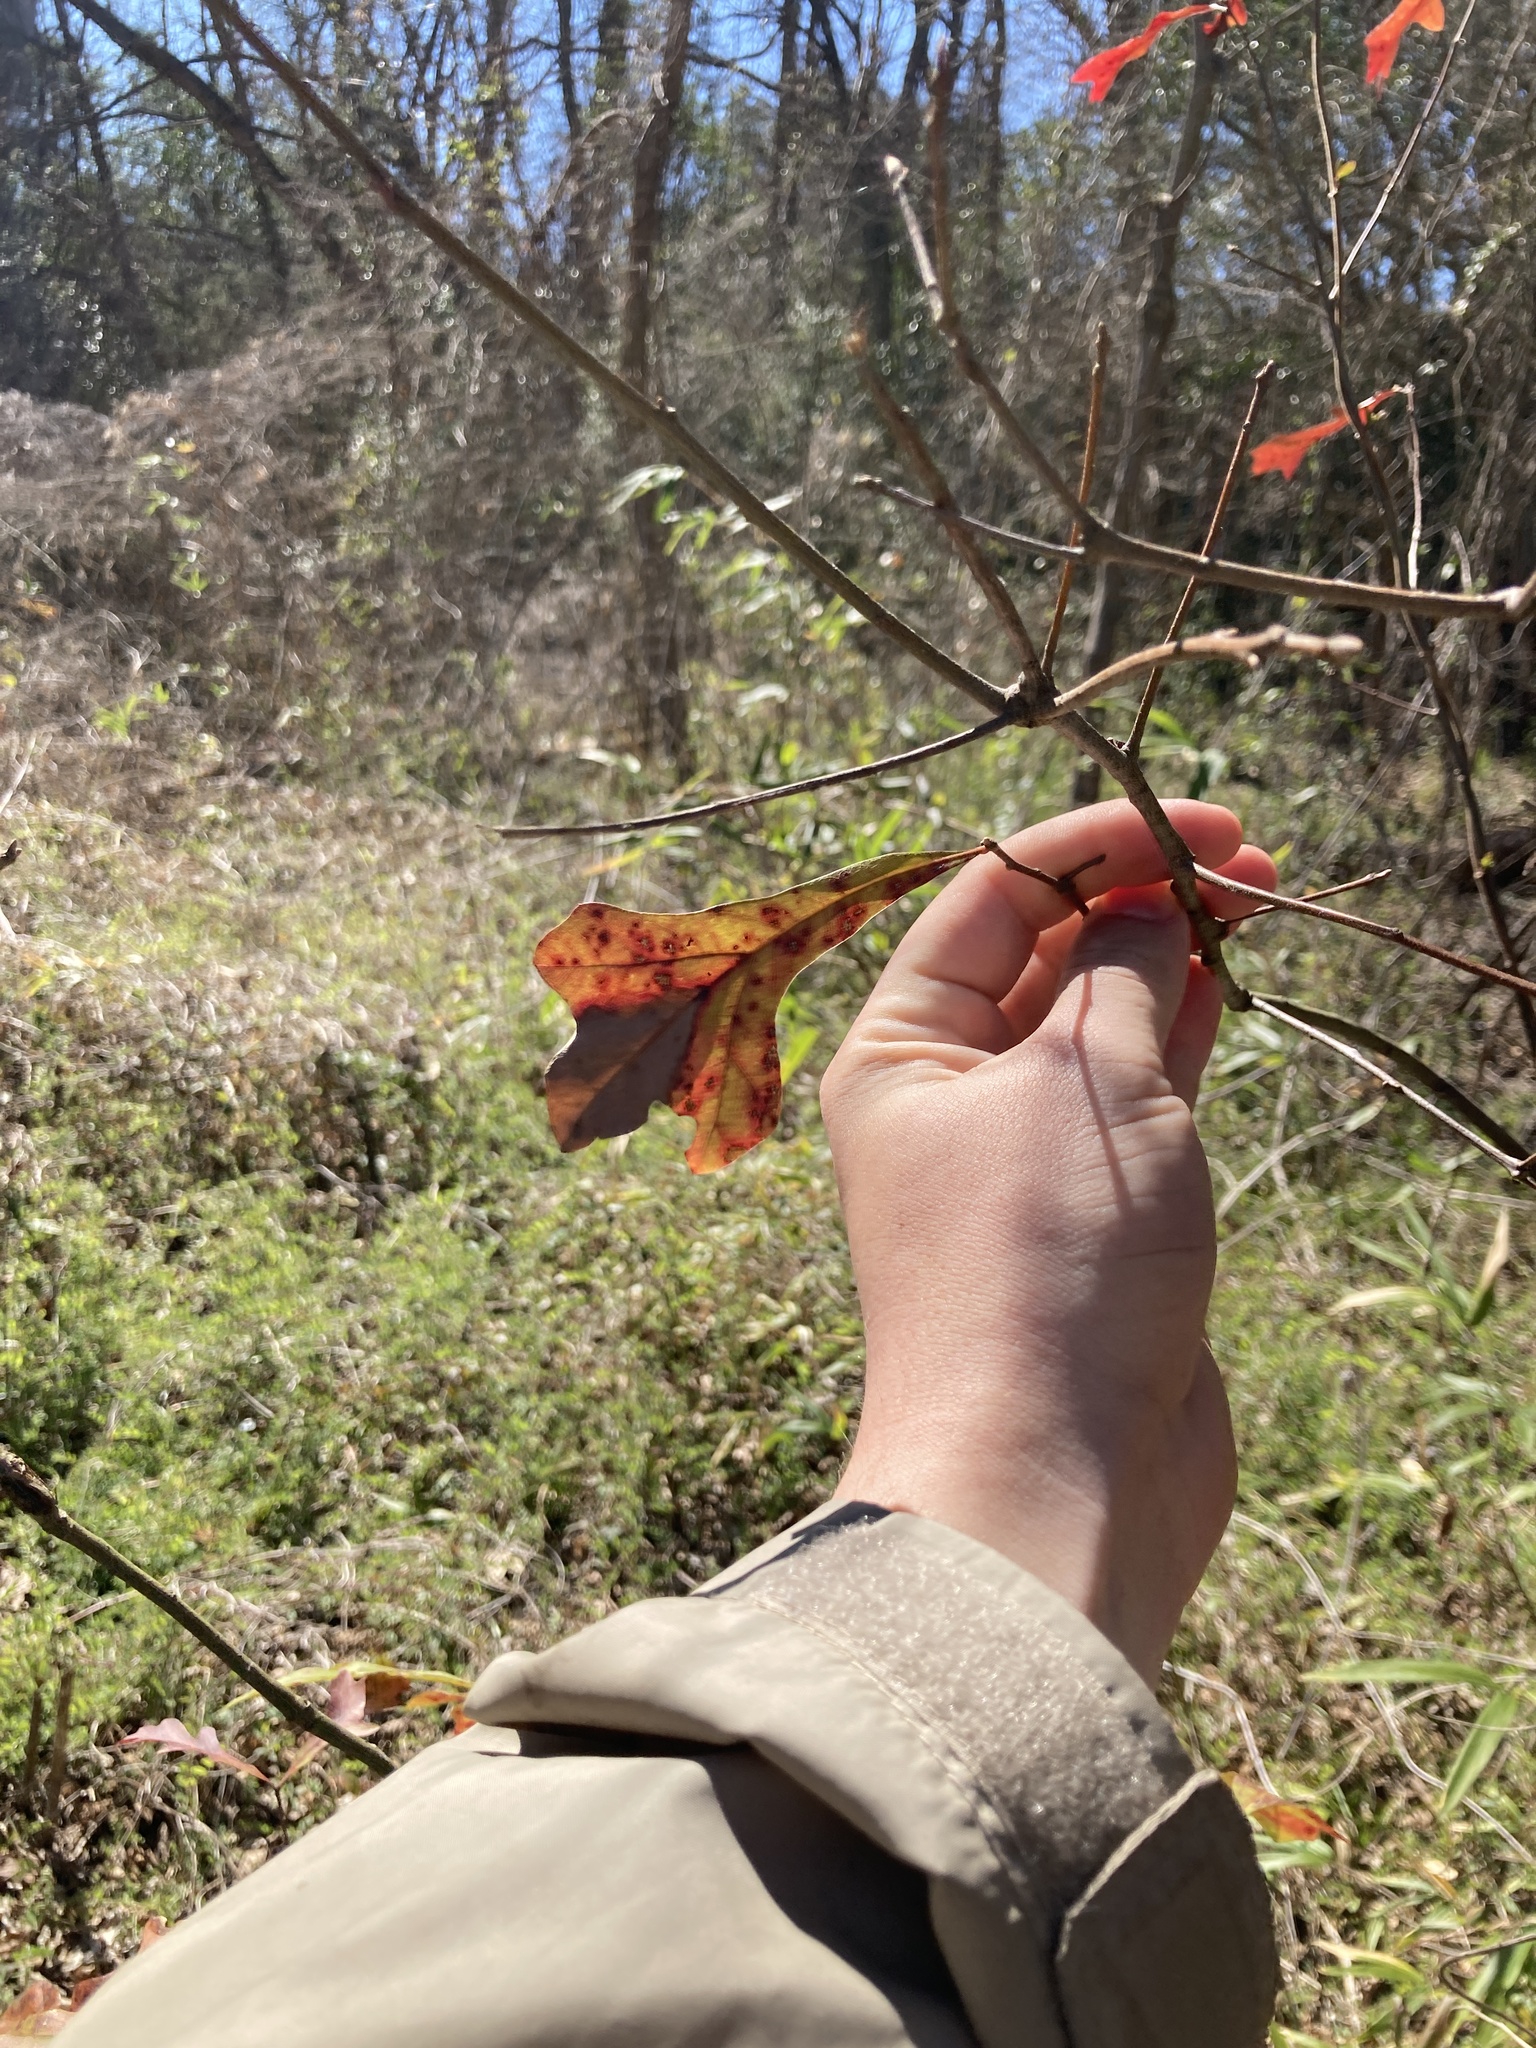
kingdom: Plantae
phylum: Tracheophyta
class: Magnoliopsida
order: Fagales
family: Fagaceae
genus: Quercus
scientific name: Quercus nigra
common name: Water oak
